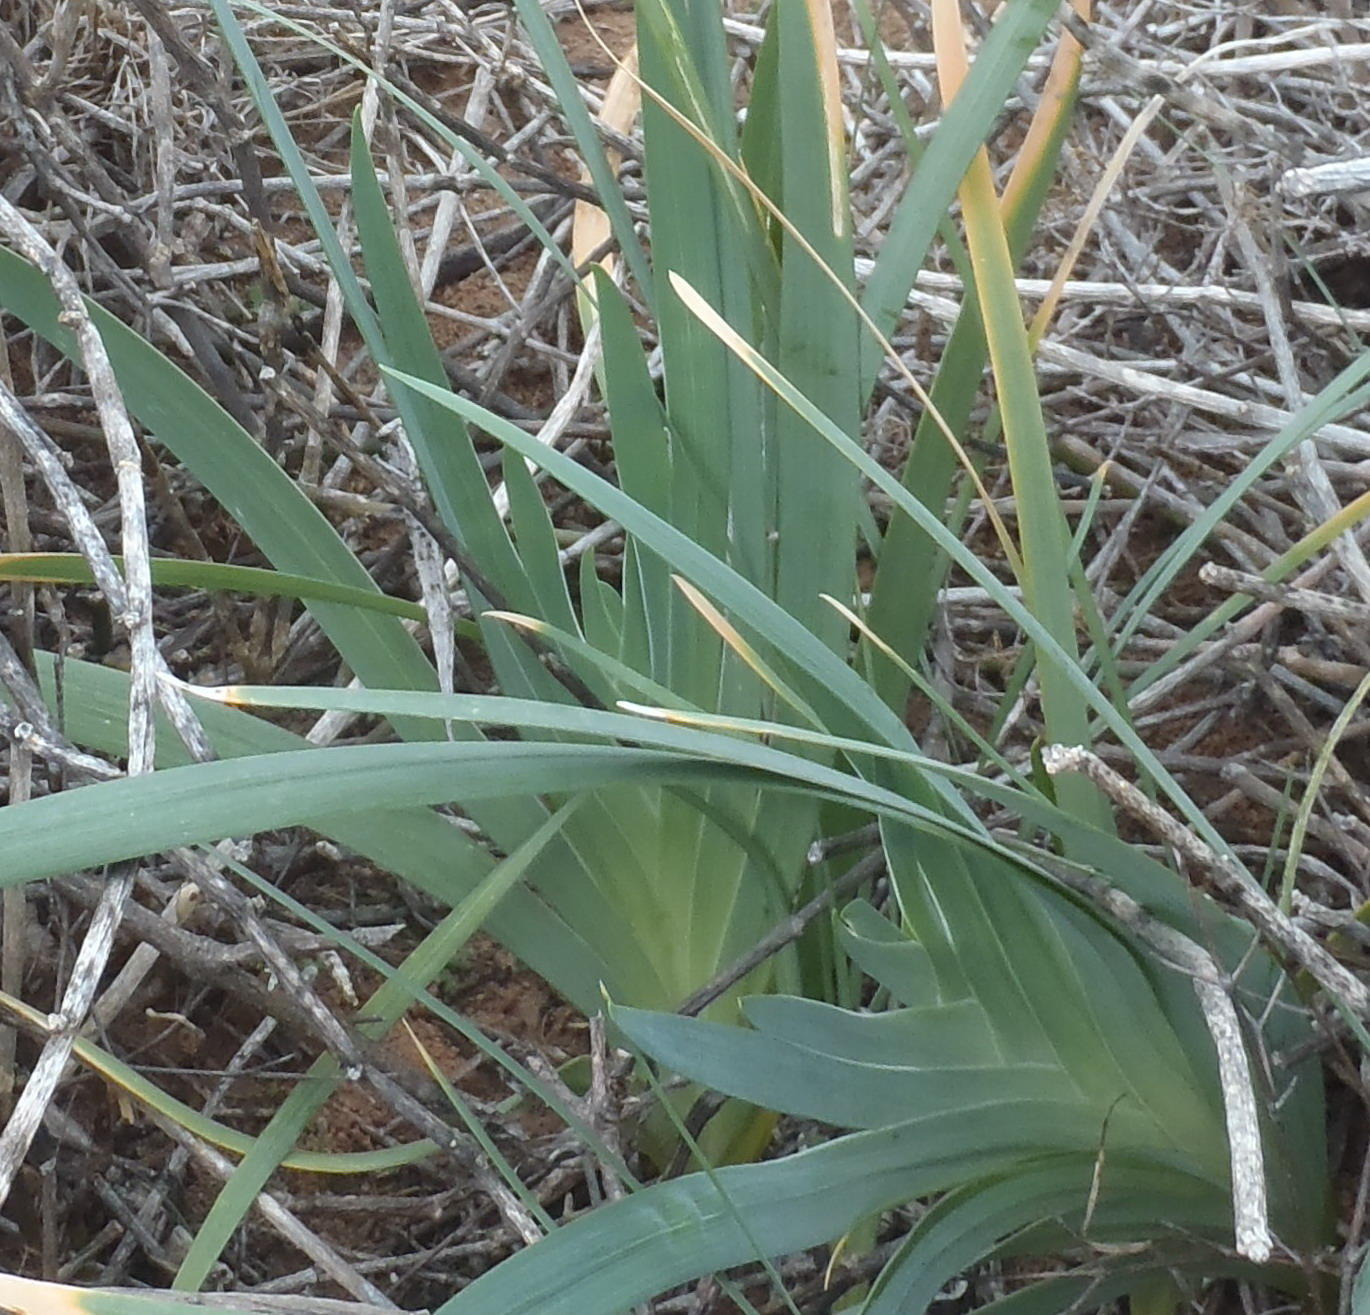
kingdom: Plantae
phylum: Tracheophyta
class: Liliopsida
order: Asparagales
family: Iridaceae
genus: Ferraria
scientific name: Ferraria crispa
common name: Black-flag
